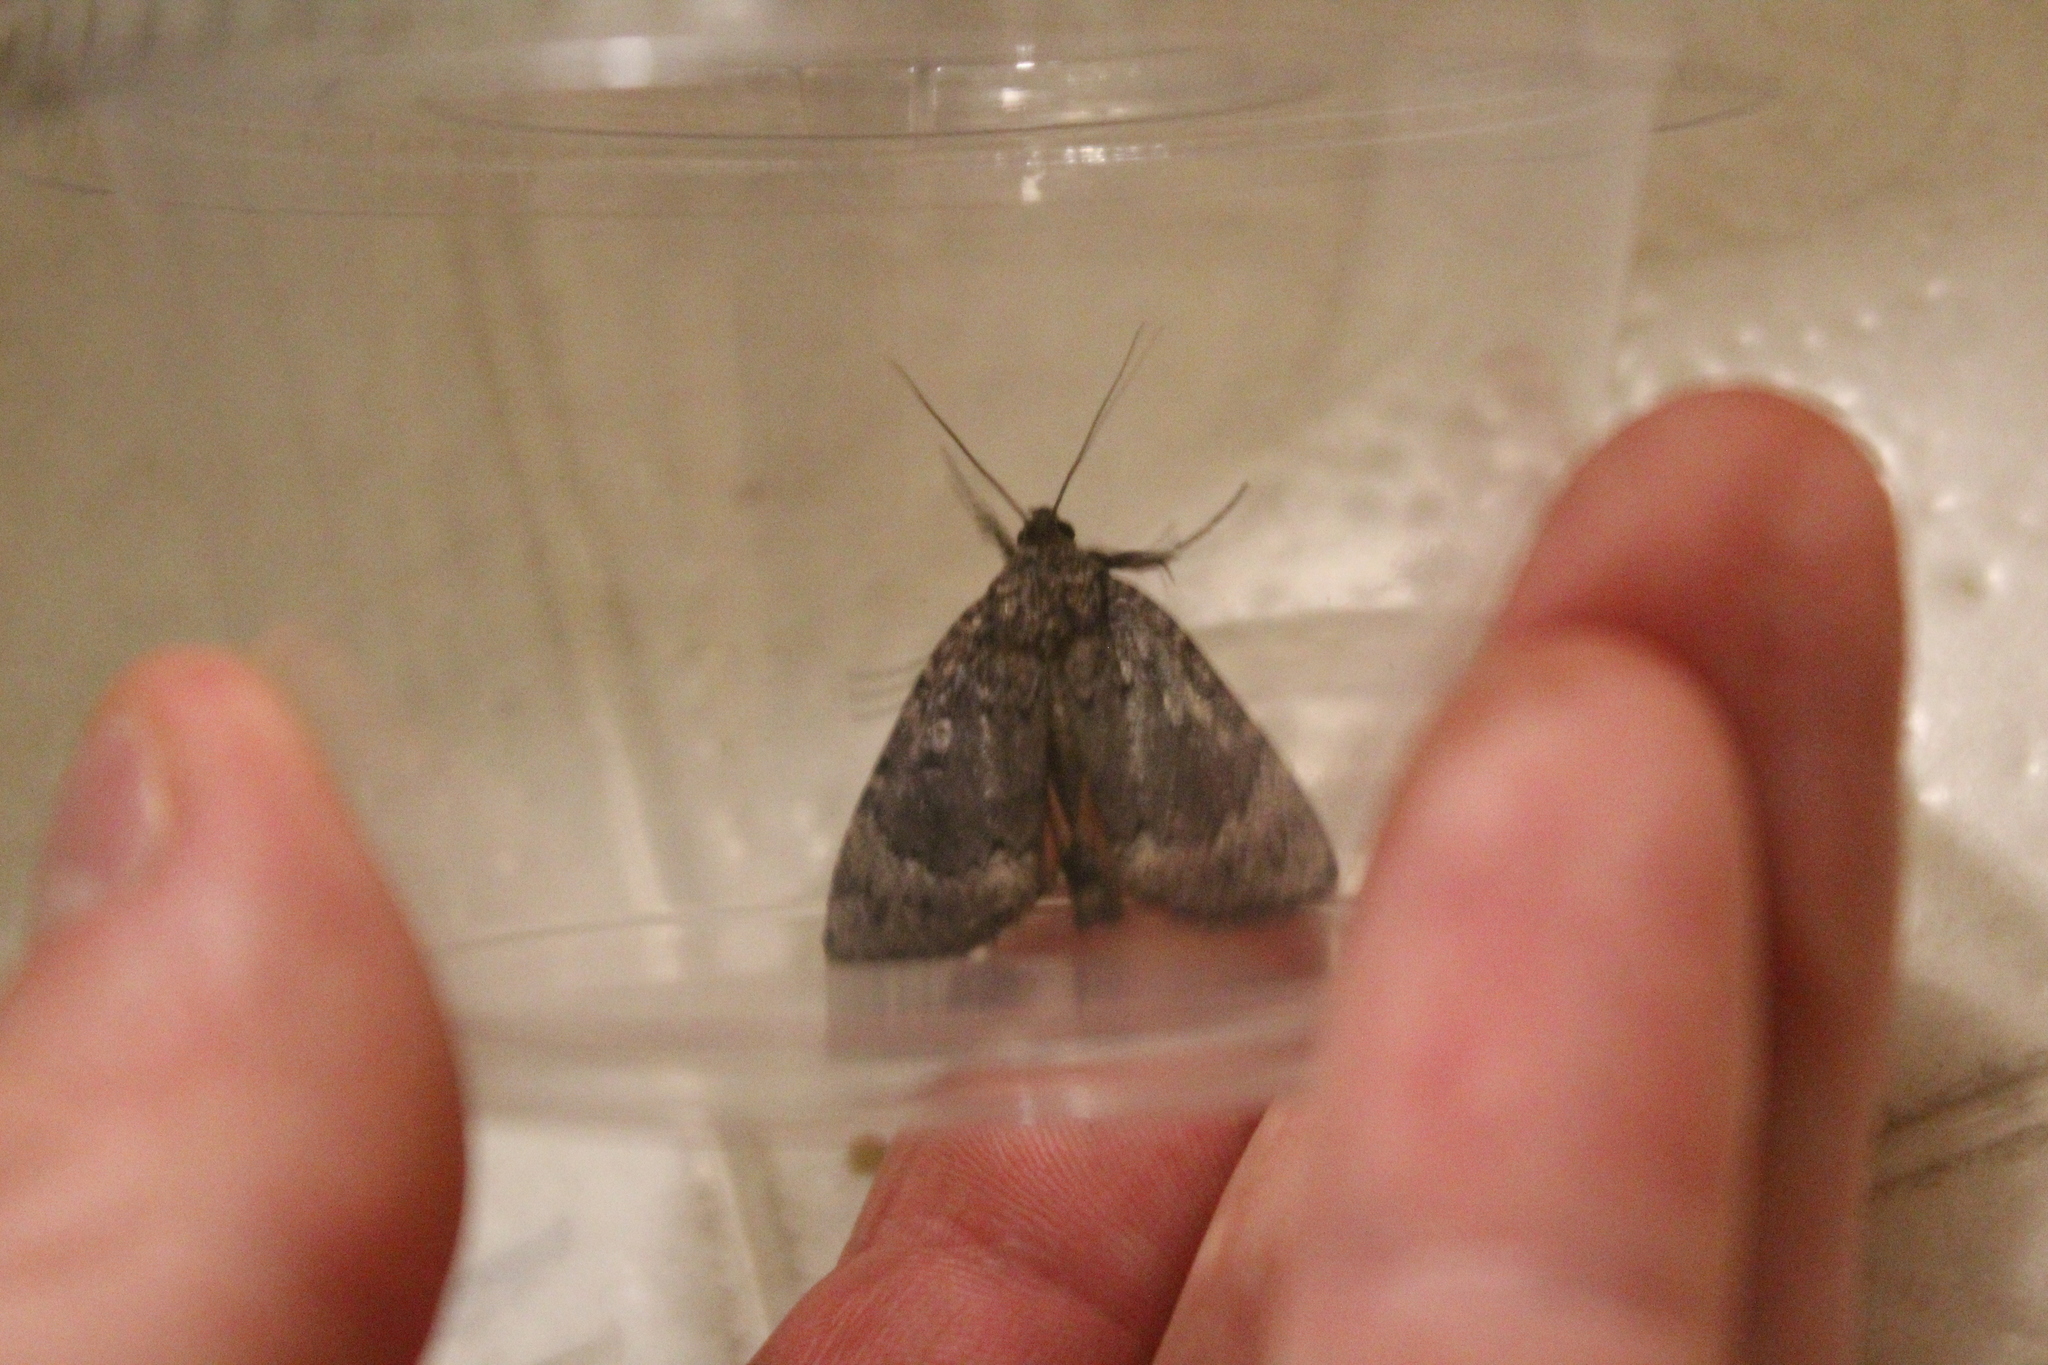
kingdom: Animalia
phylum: Arthropoda
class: Insecta
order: Lepidoptera
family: Noctuidae
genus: Amphipyra
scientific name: Amphipyra pyramidoides
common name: American copper underwing
